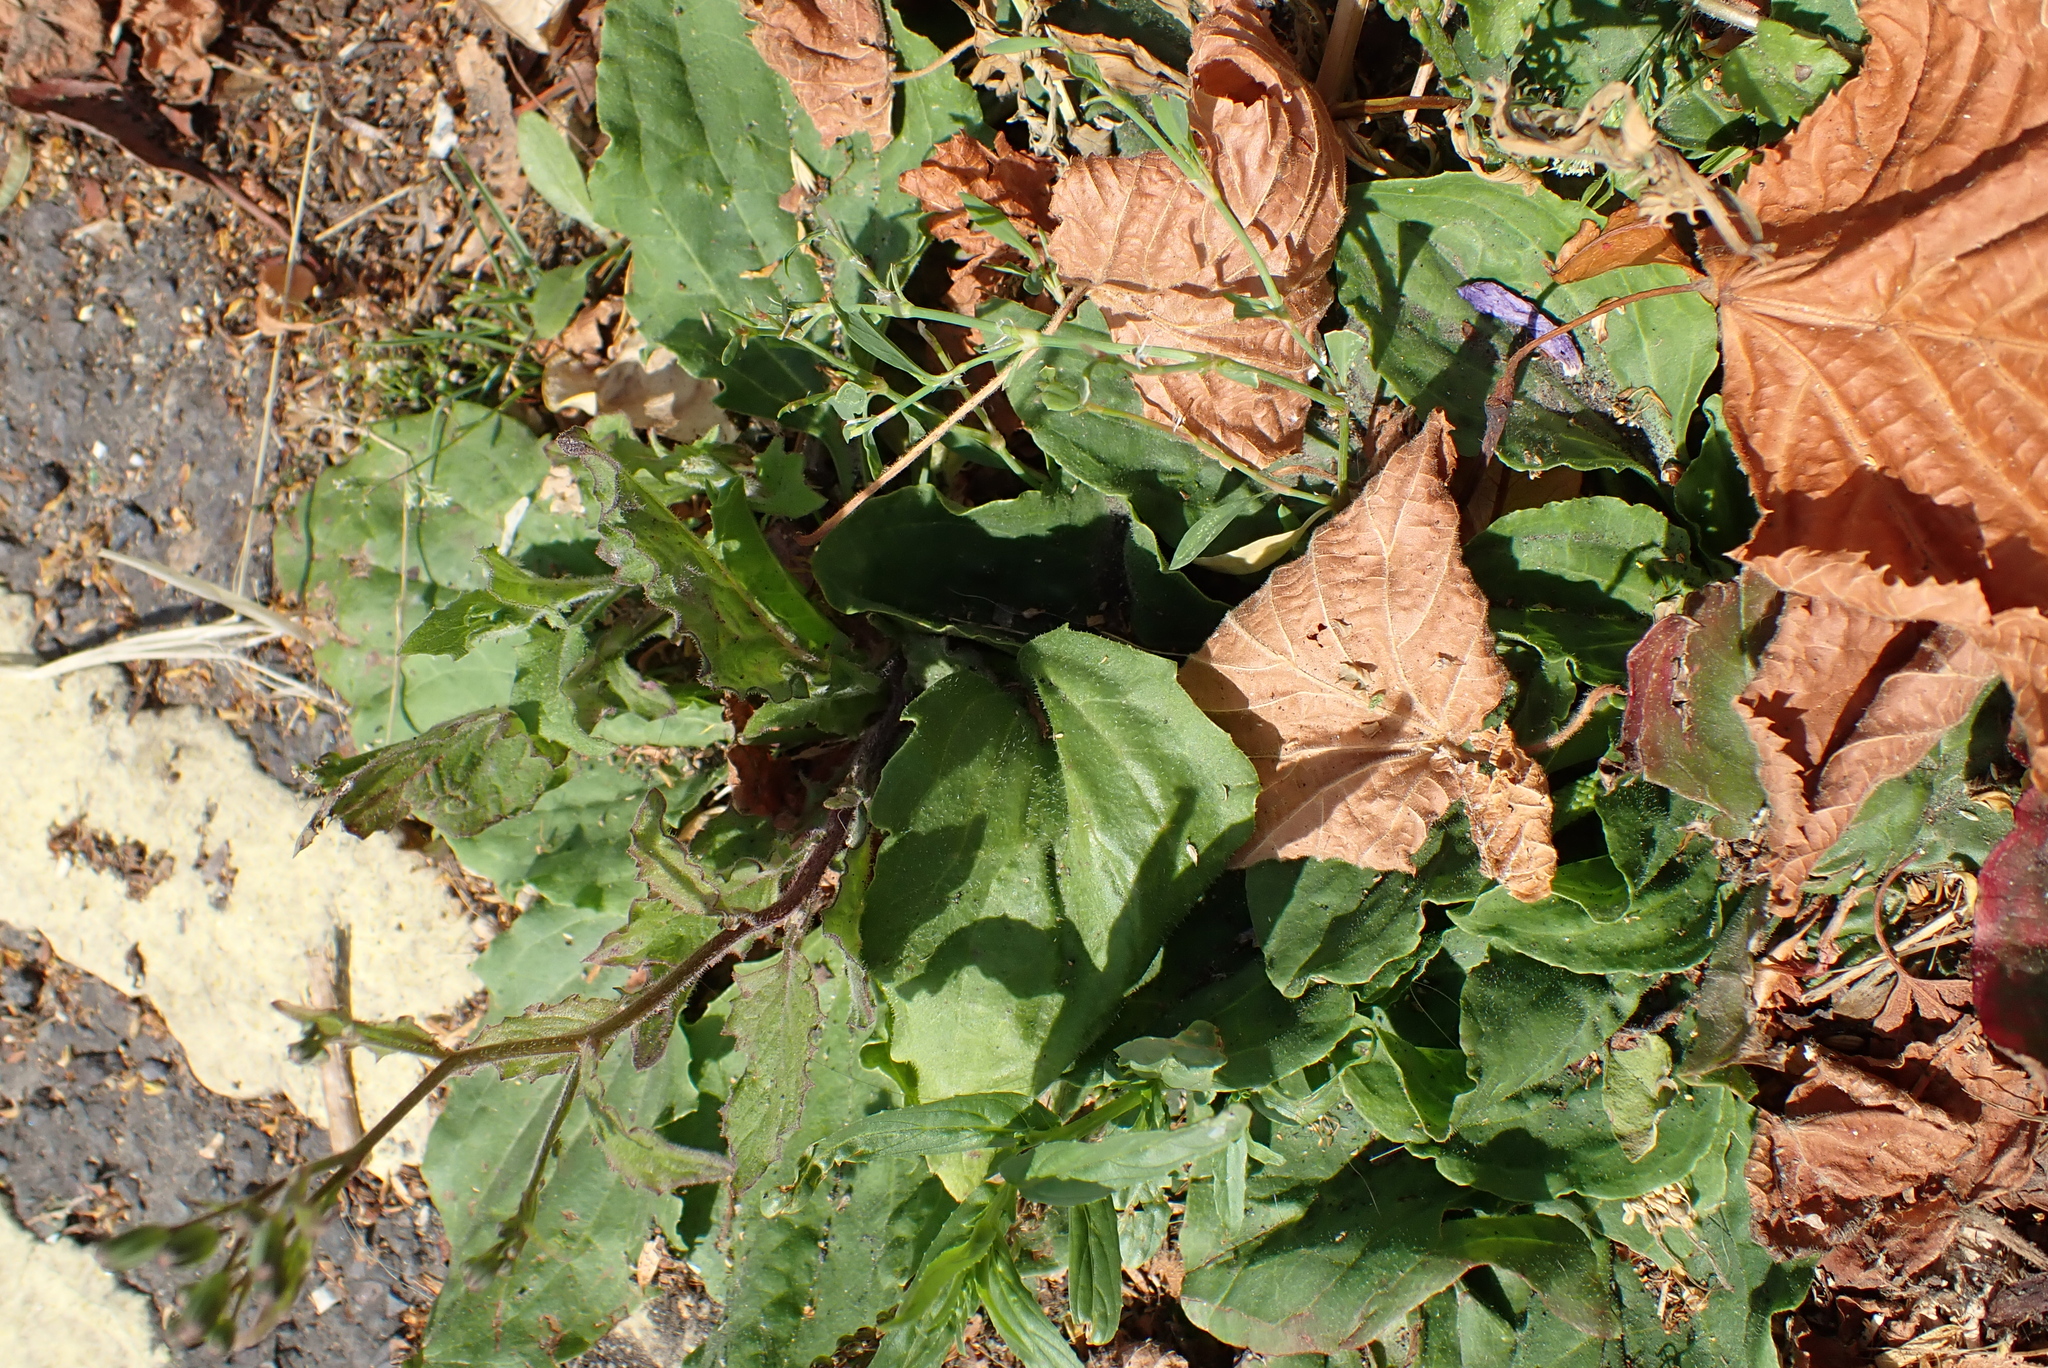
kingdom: Plantae
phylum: Tracheophyta
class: Magnoliopsida
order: Lamiales
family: Plantaginaceae
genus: Plantago
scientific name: Plantago major
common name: Common plantain
